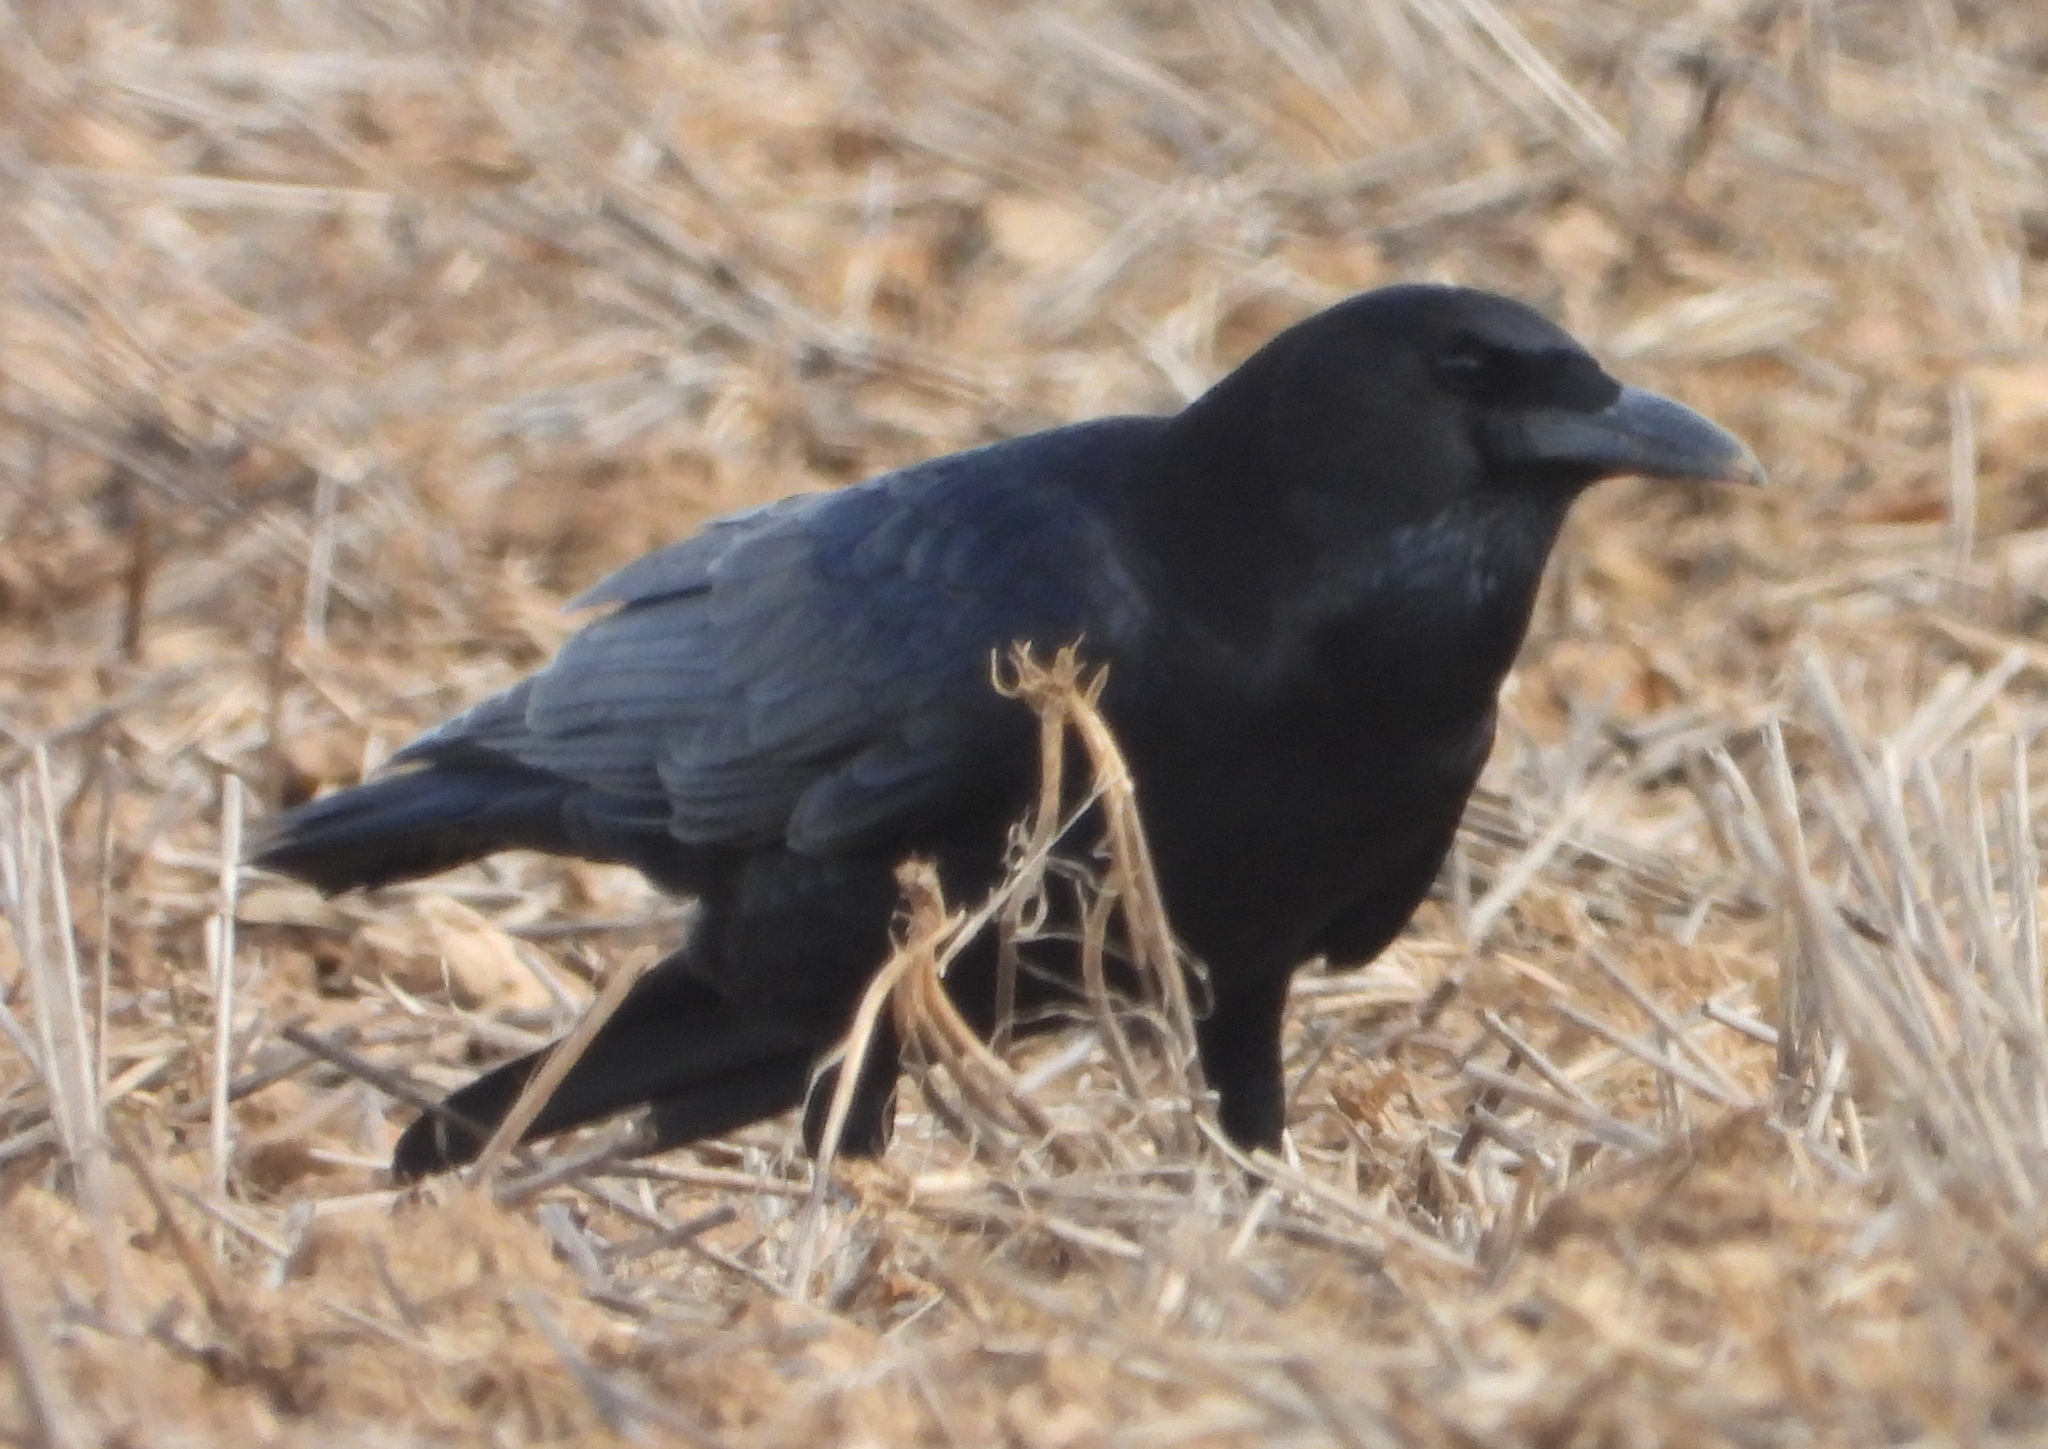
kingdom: Animalia
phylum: Chordata
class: Aves
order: Passeriformes
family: Corvidae
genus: Corvus
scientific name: Corvus capensis
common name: Cape crow
